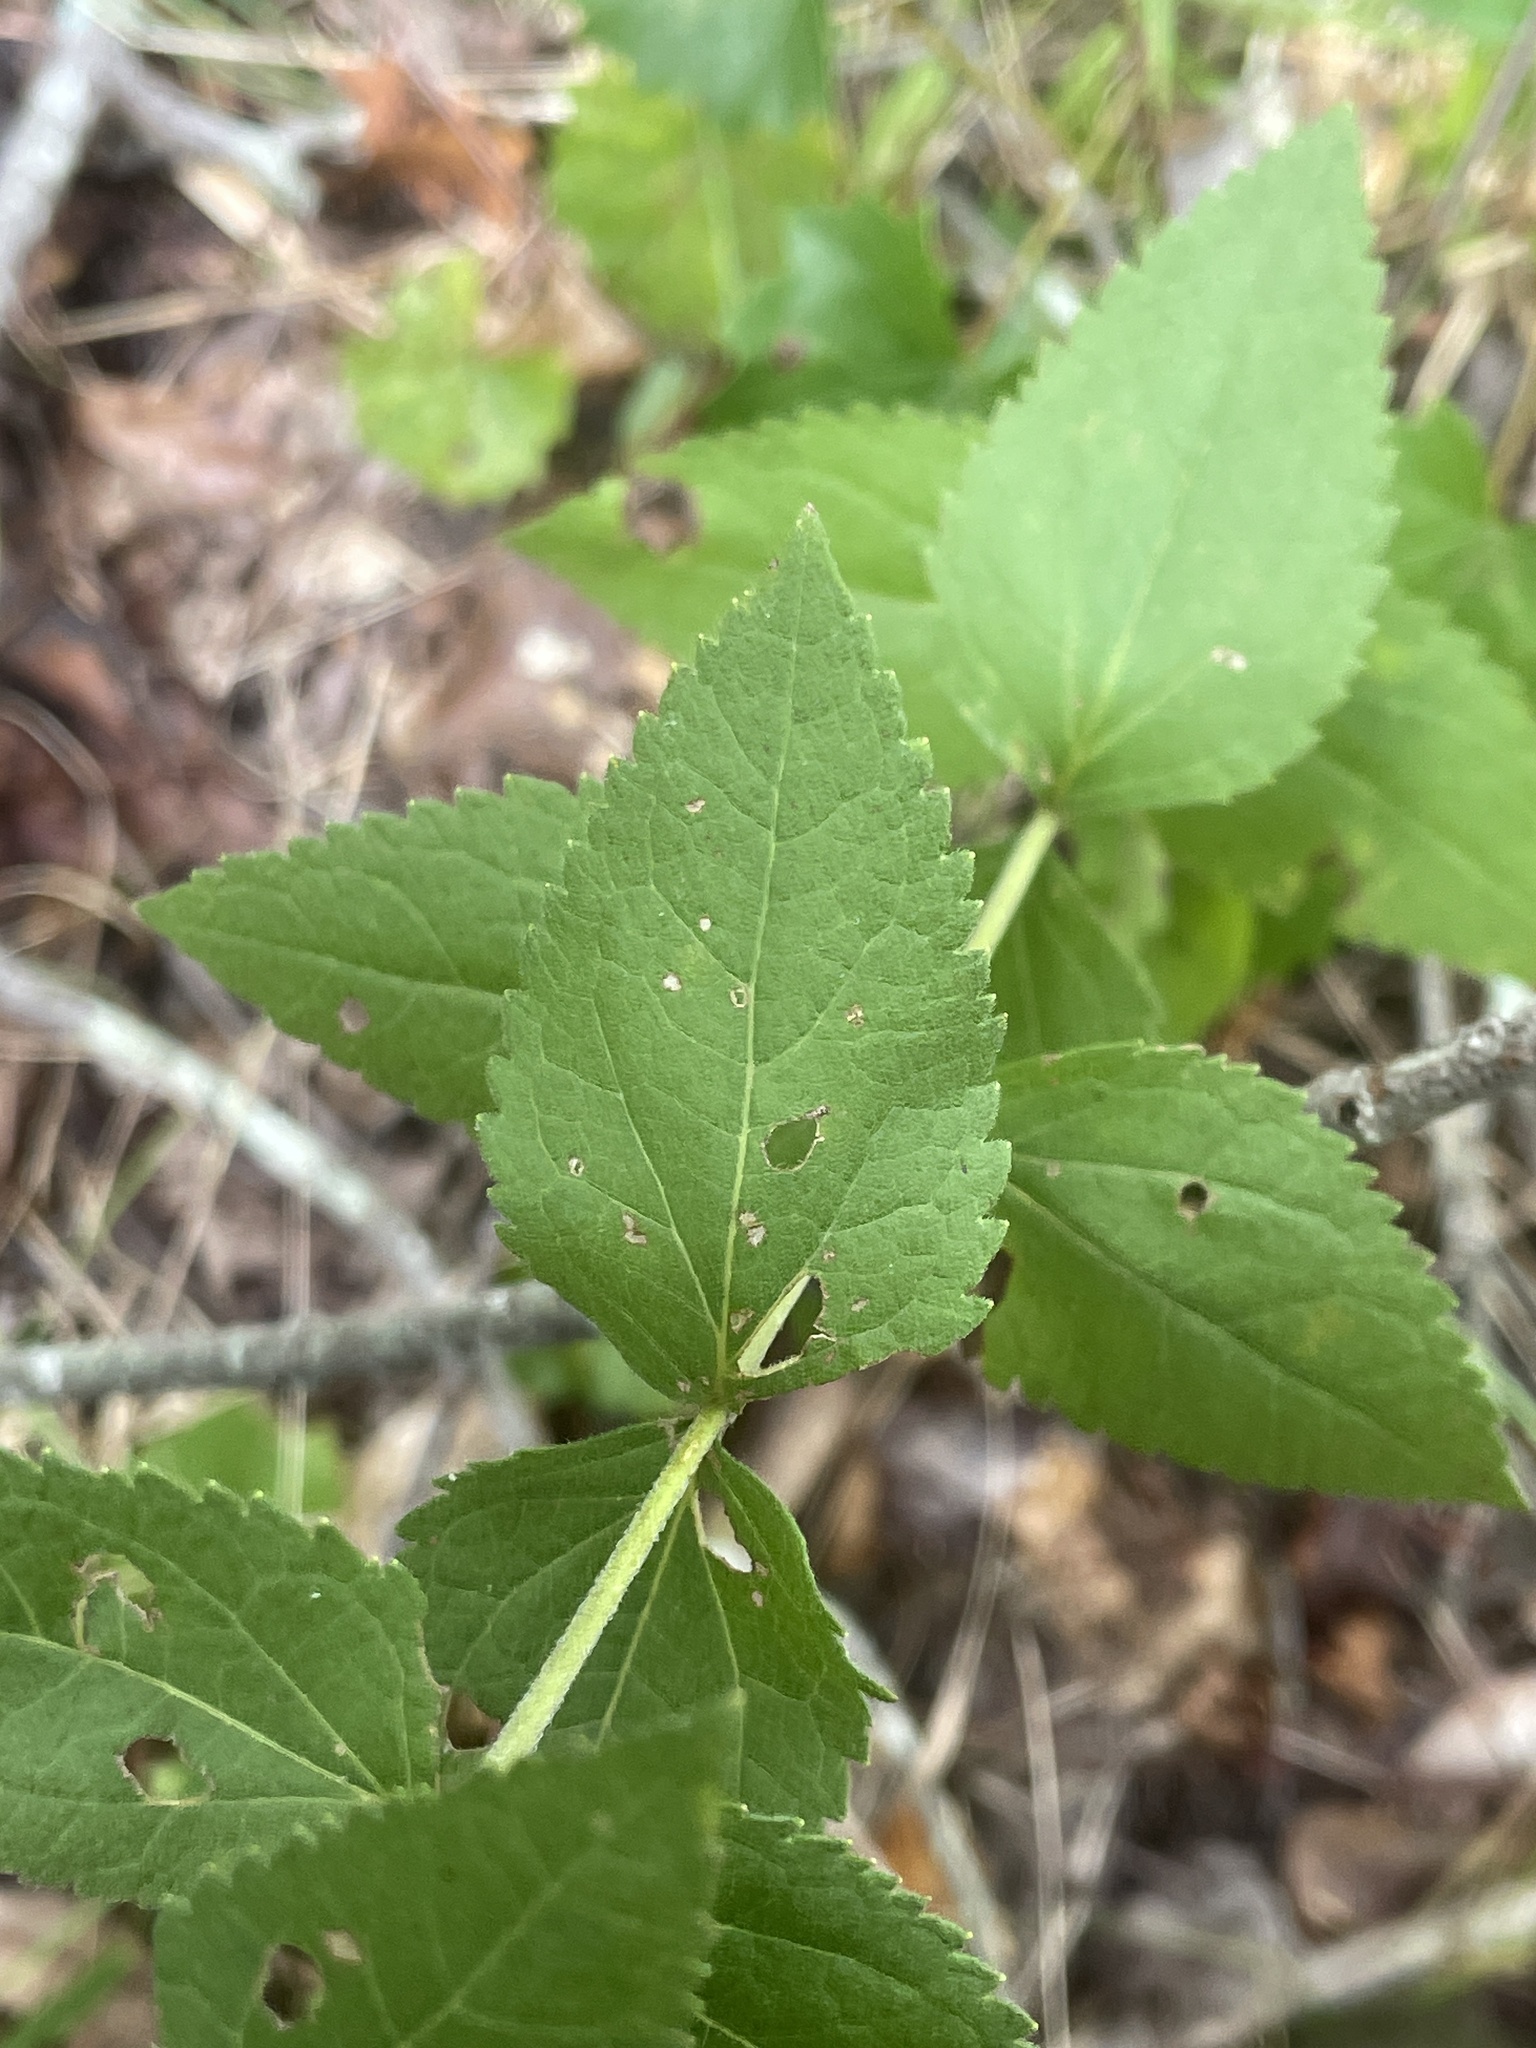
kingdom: Plantae
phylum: Tracheophyta
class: Magnoliopsida
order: Asterales
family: Asteraceae
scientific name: Asteraceae
